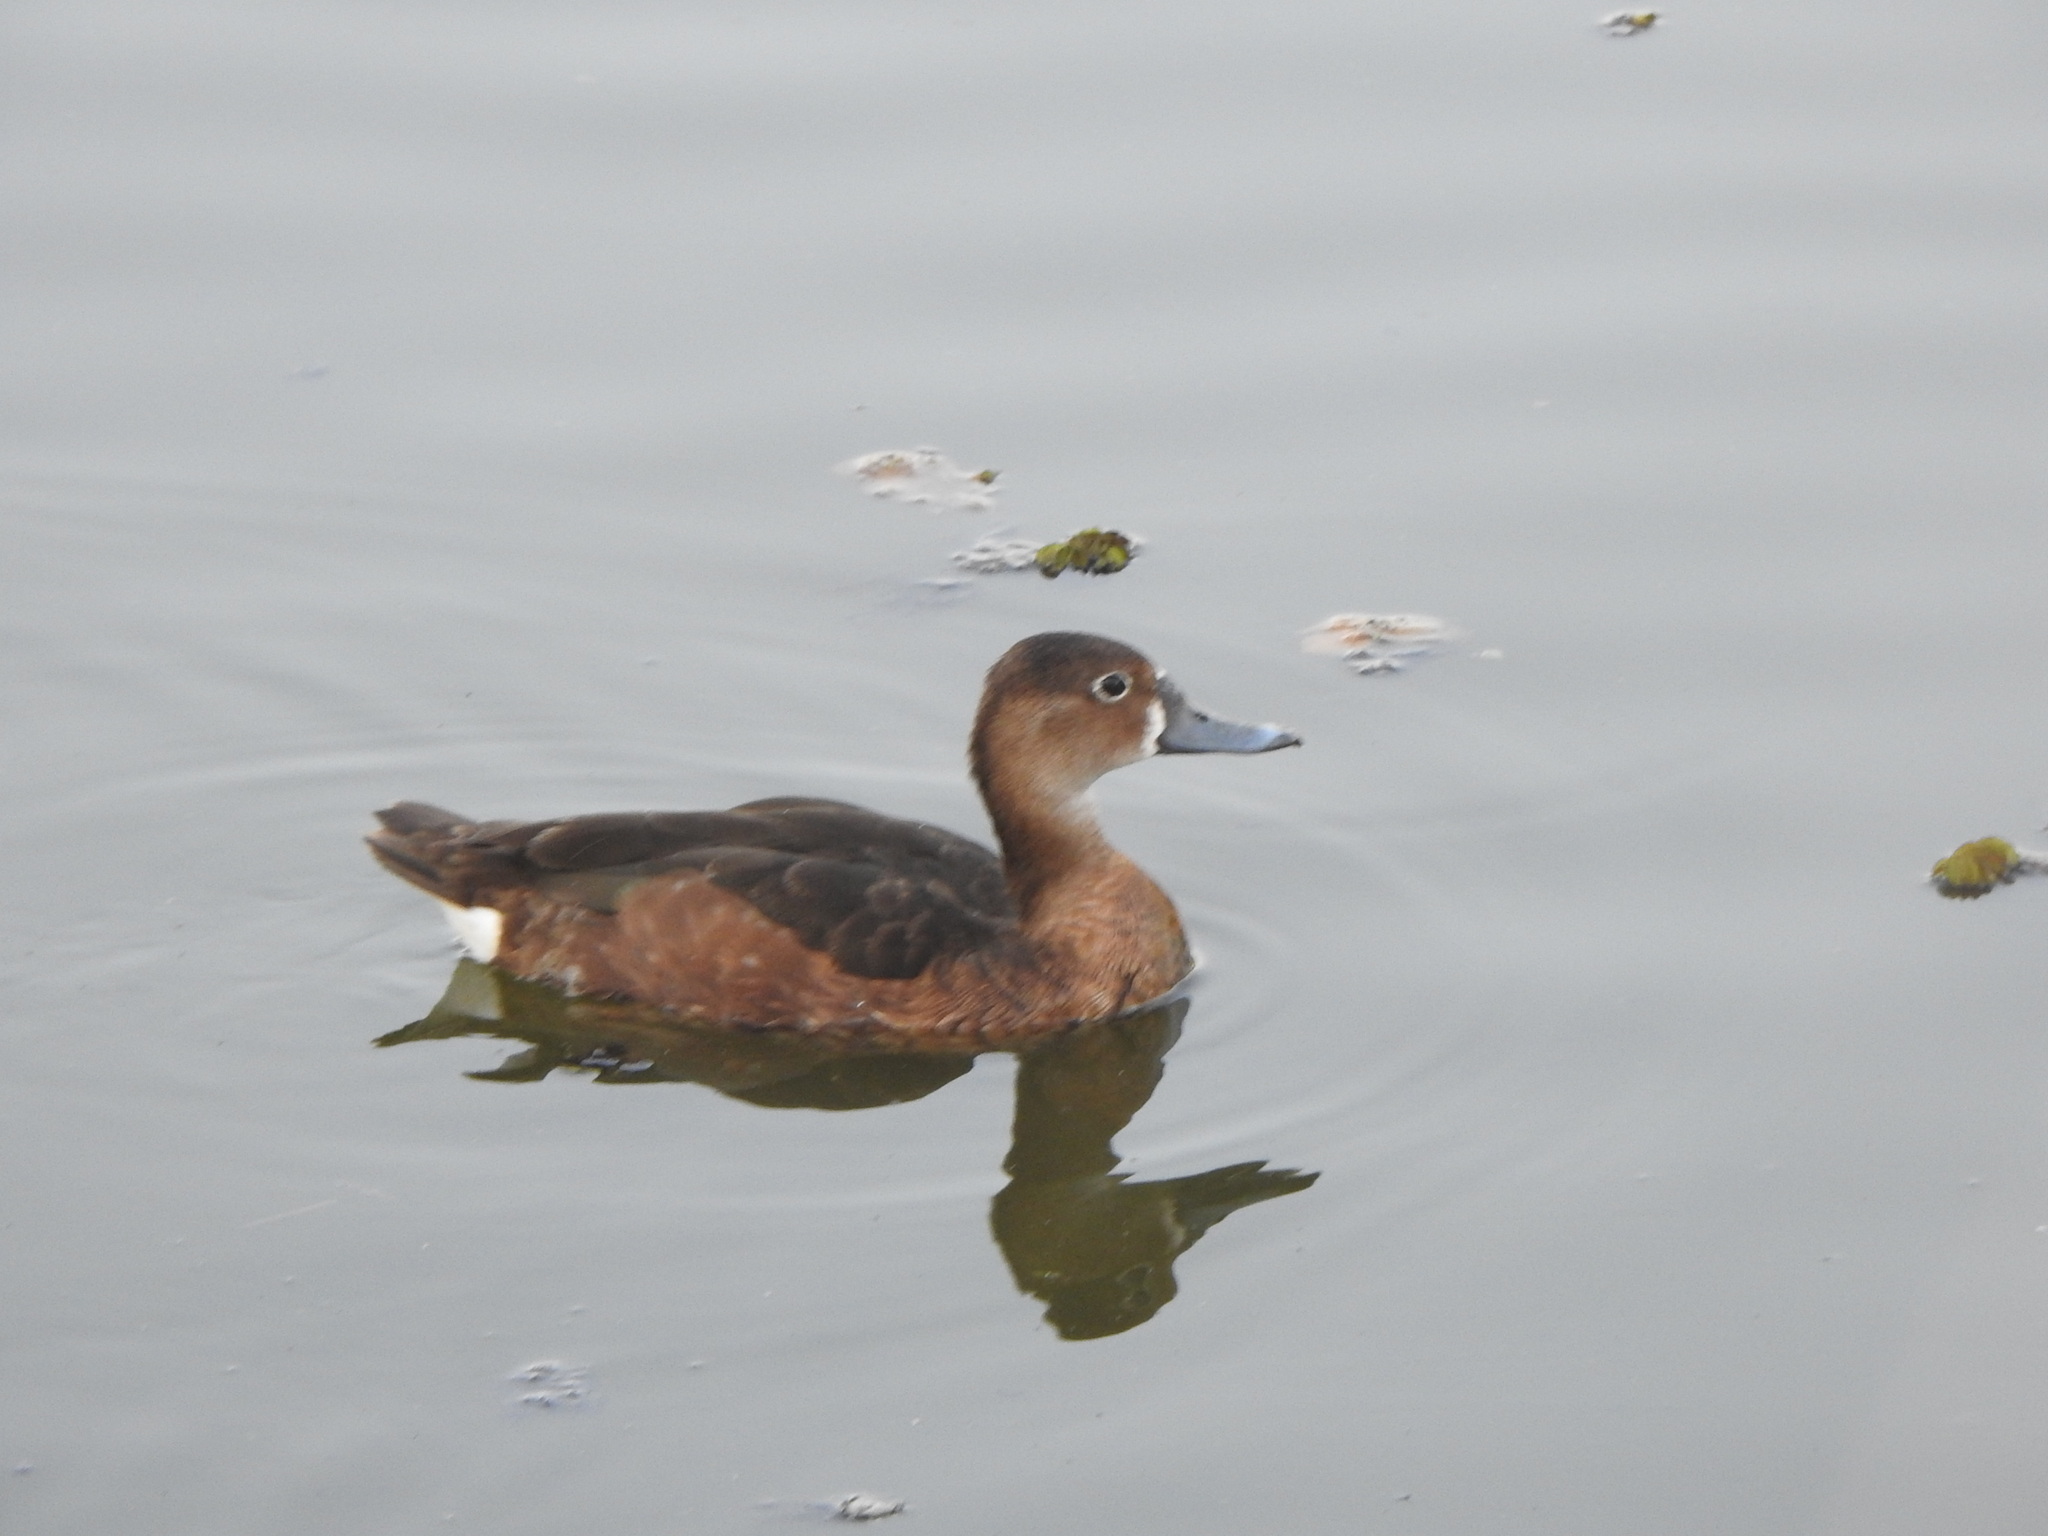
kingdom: Animalia
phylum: Chordata
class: Aves
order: Anseriformes
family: Anatidae
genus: Netta
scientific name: Netta peposaca
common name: Rosy-billed pochard
